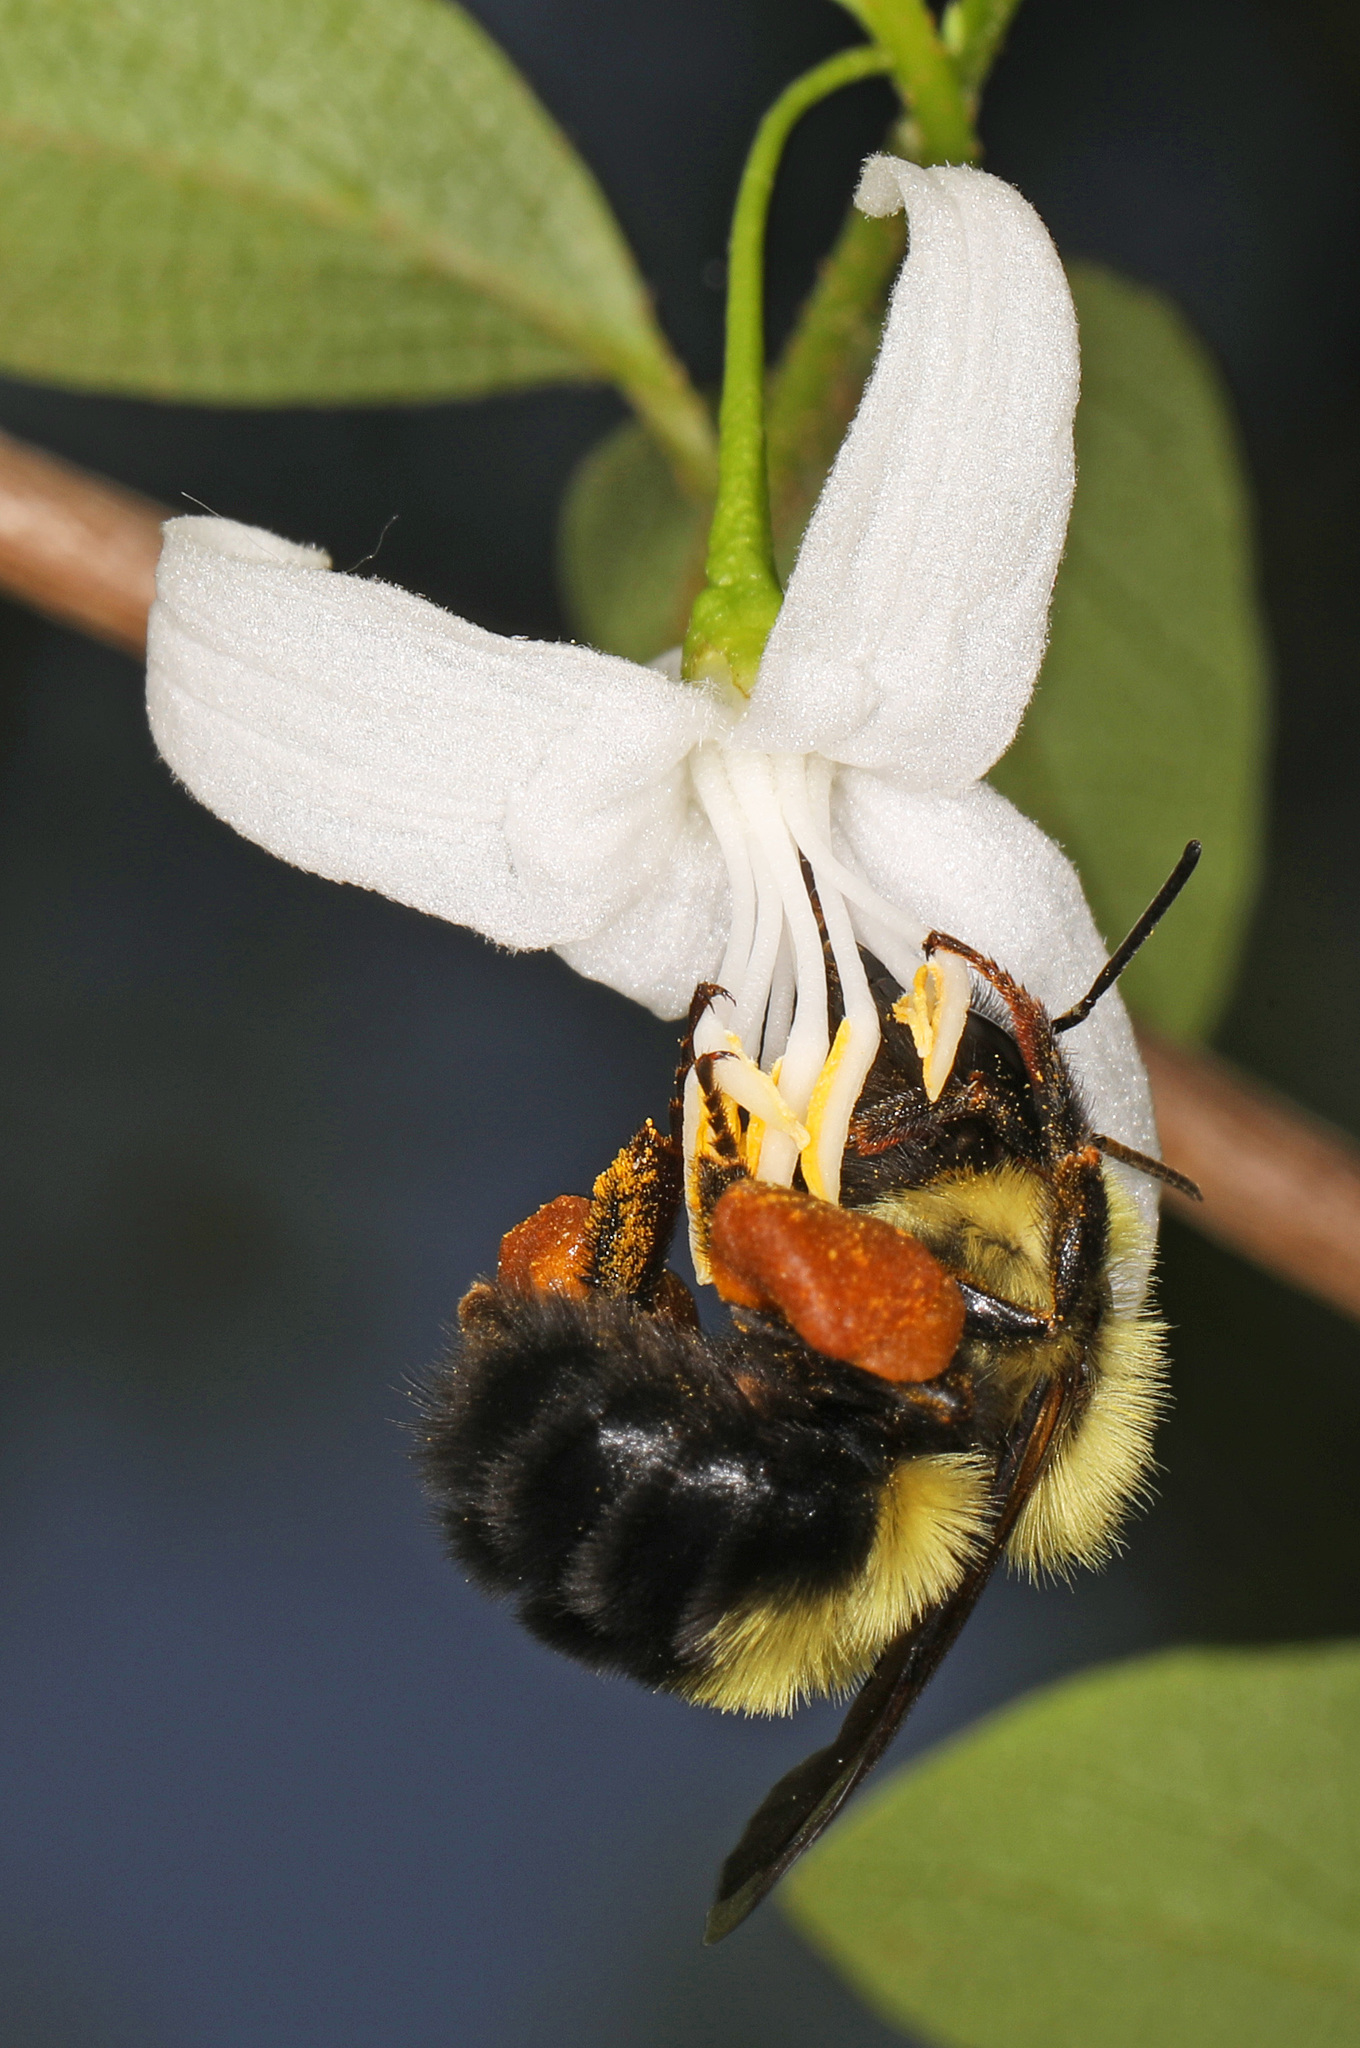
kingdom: Animalia
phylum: Arthropoda
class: Insecta
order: Hymenoptera
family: Apidae
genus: Bombus
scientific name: Bombus bimaculatus
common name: Two-spotted bumble bee
